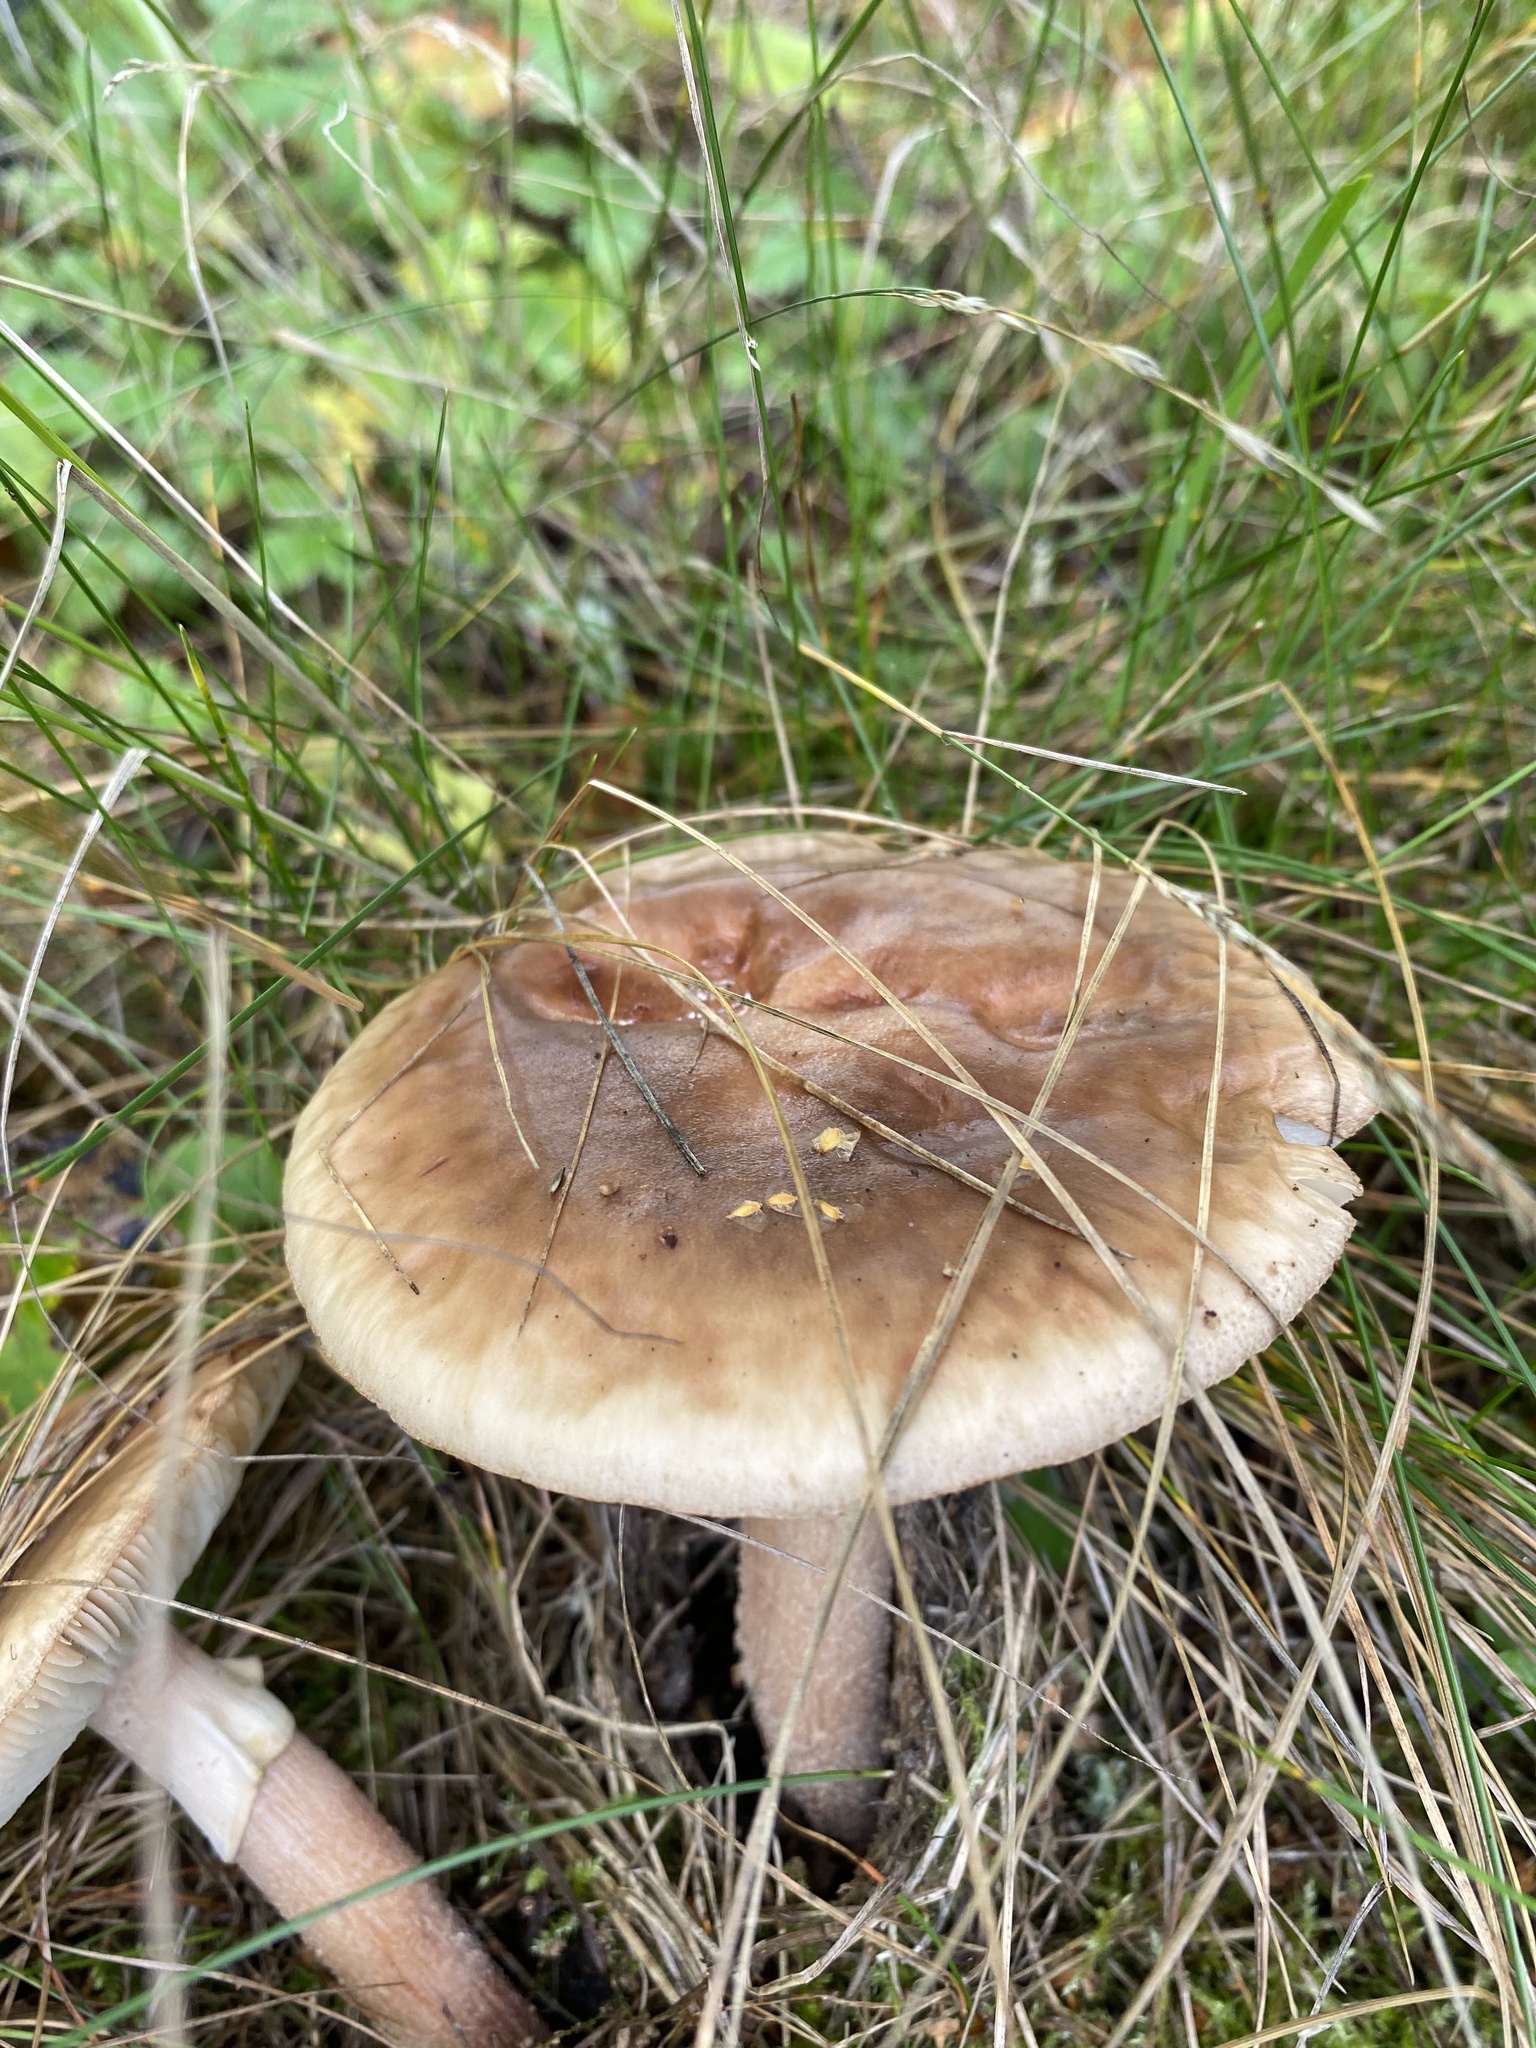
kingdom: Fungi
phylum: Basidiomycota
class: Agaricomycetes
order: Agaricales
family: Amanitaceae
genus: Amanita
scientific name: Amanita rubescens
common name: Blusher
